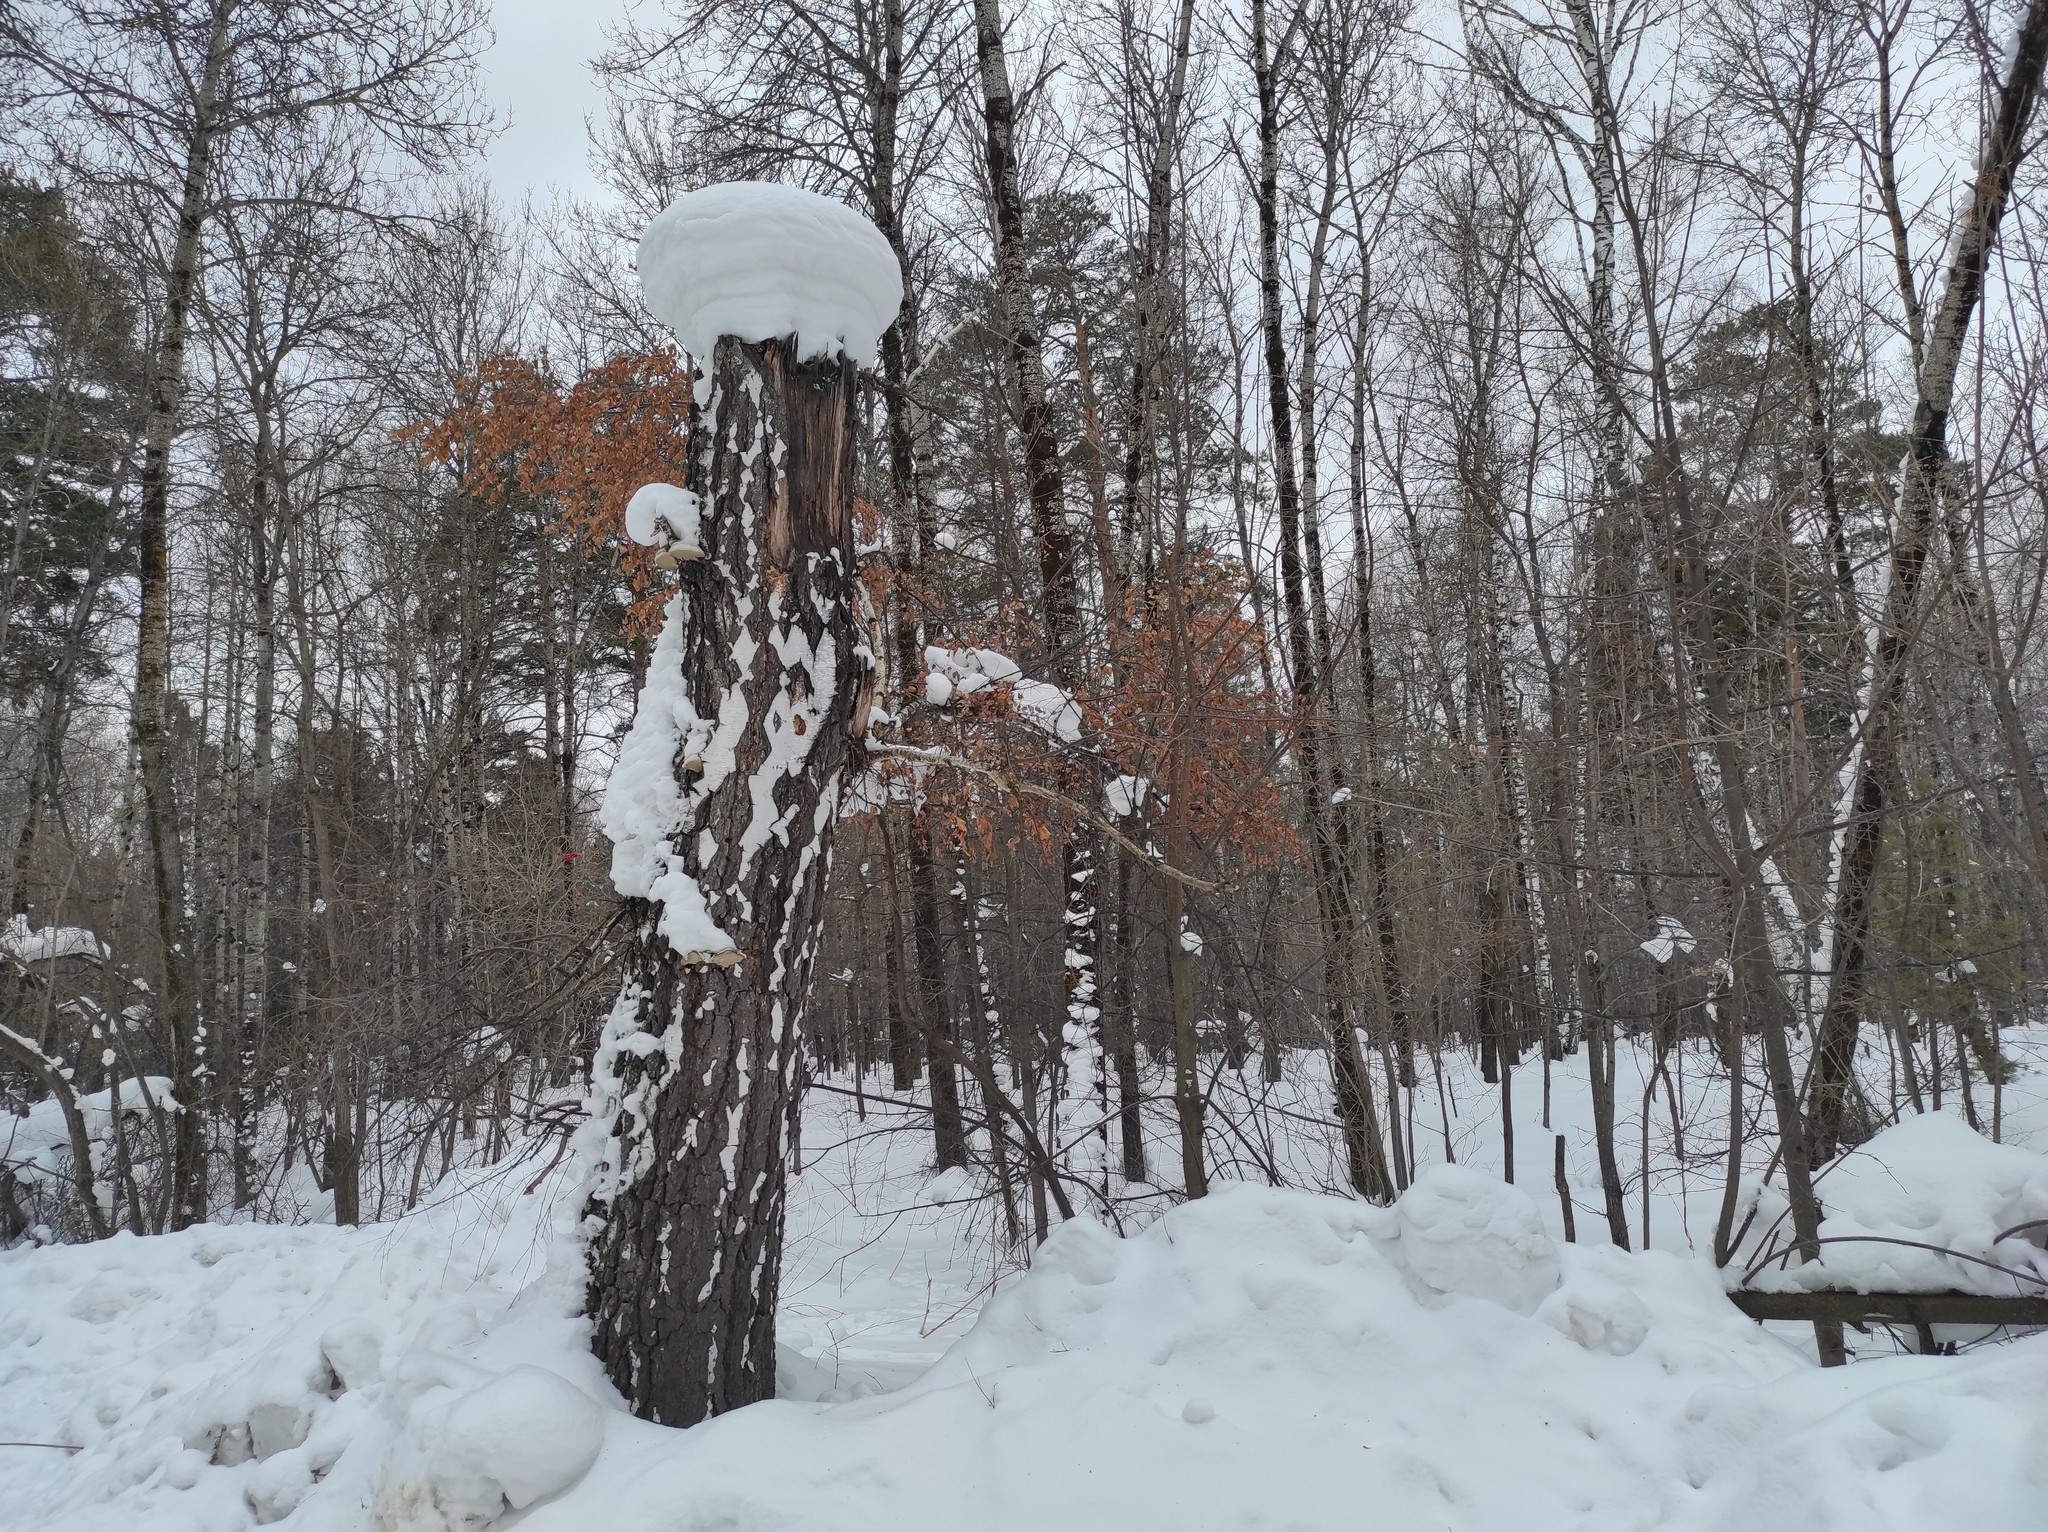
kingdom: Plantae
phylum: Tracheophyta
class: Magnoliopsida
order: Fagales
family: Betulaceae
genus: Betula
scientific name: Betula pendula
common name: Silver birch
